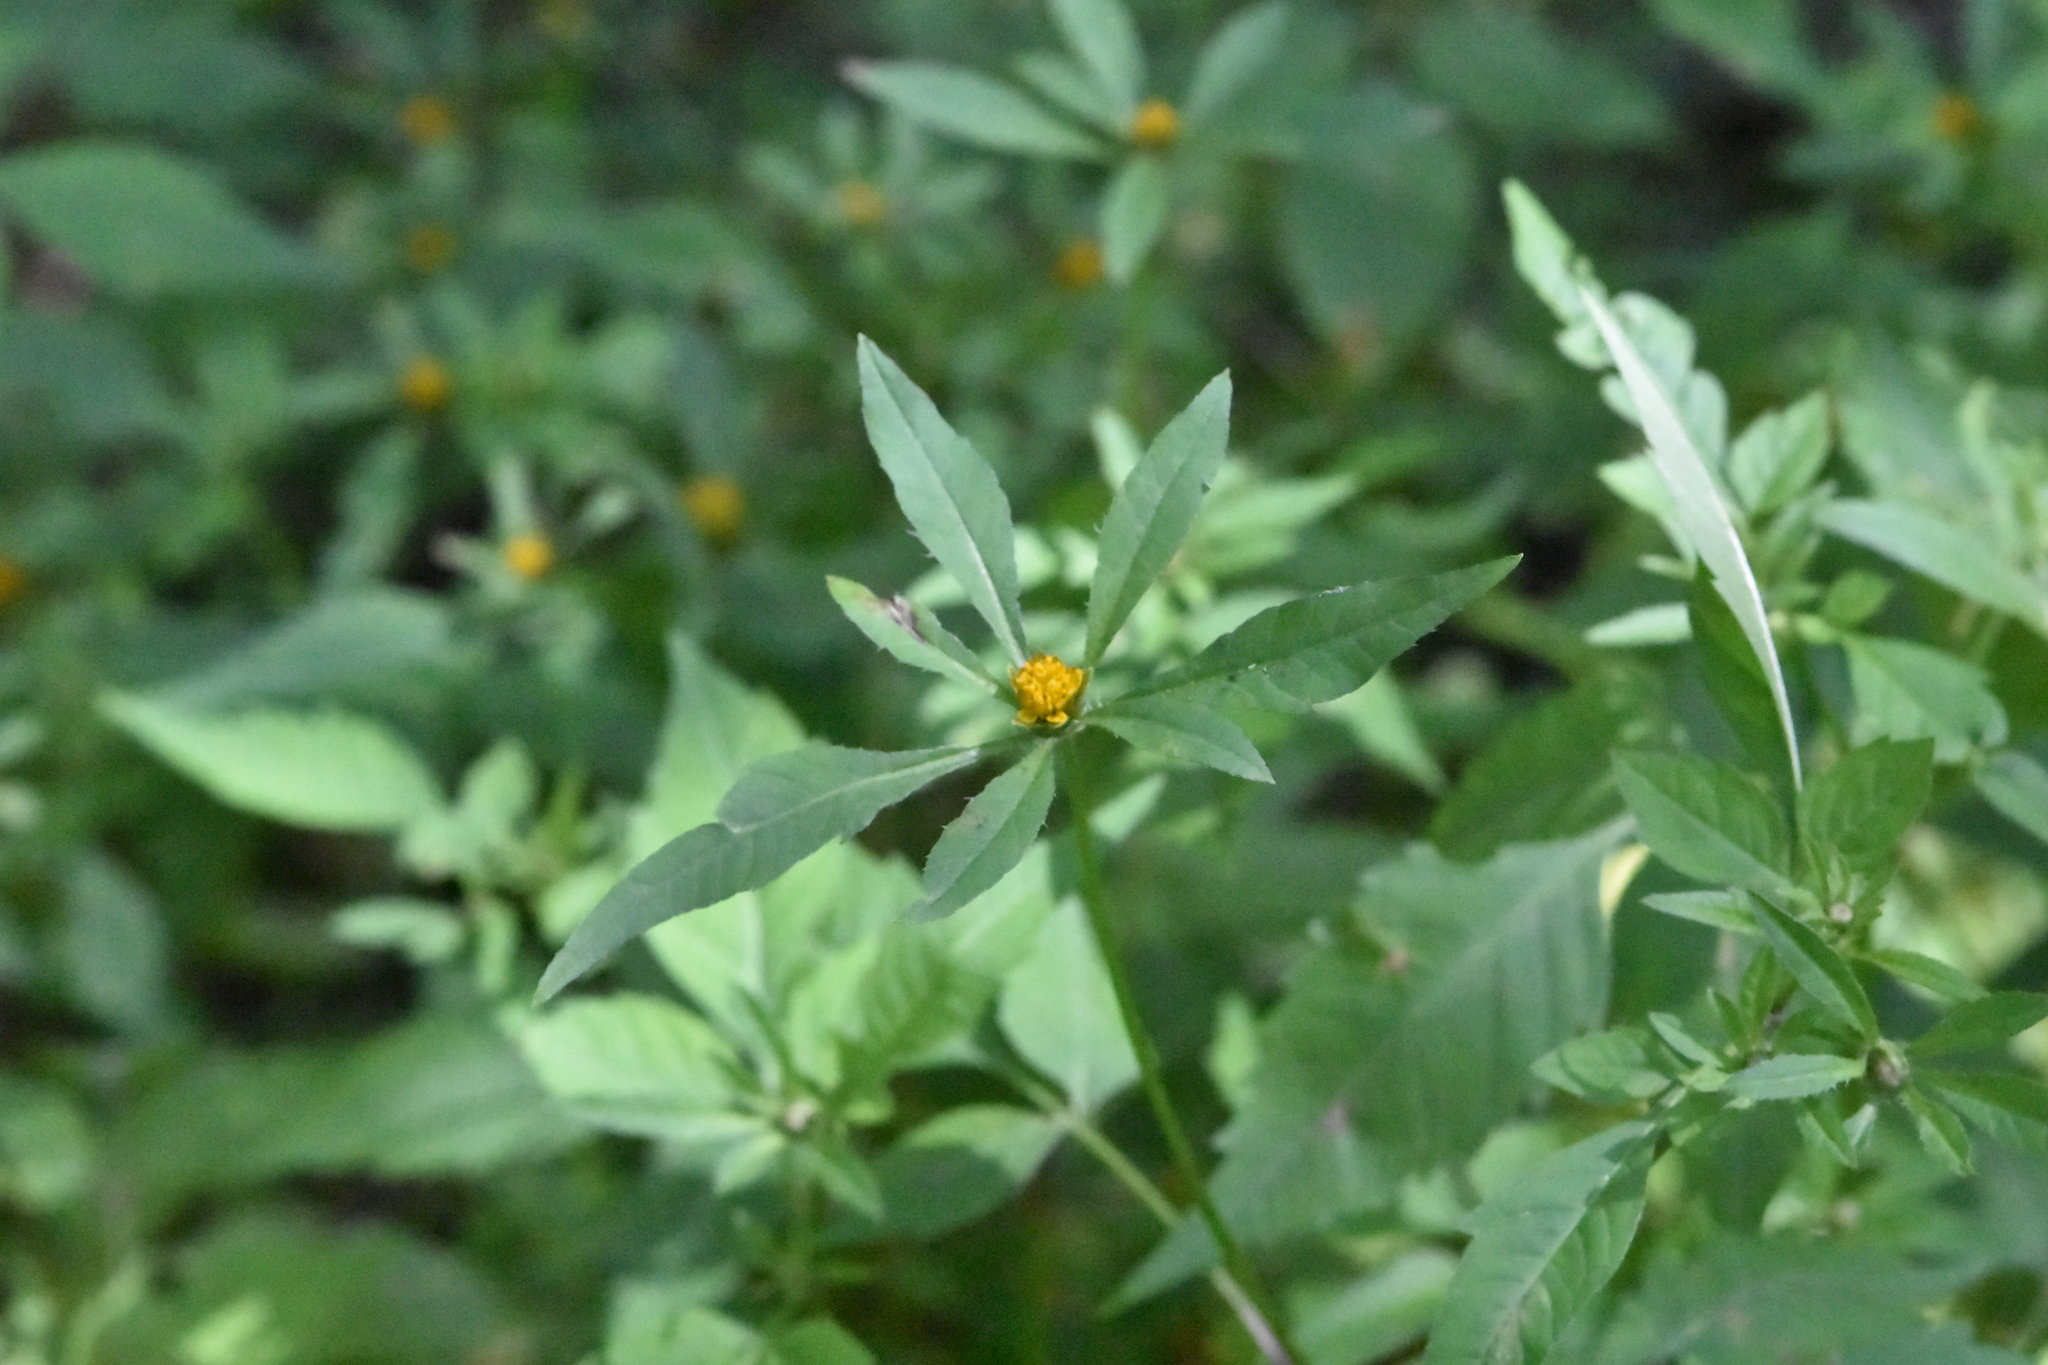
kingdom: Plantae
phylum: Tracheophyta
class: Magnoliopsida
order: Asterales
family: Asteraceae
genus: Bidens
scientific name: Bidens frondosa
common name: Beggarticks
